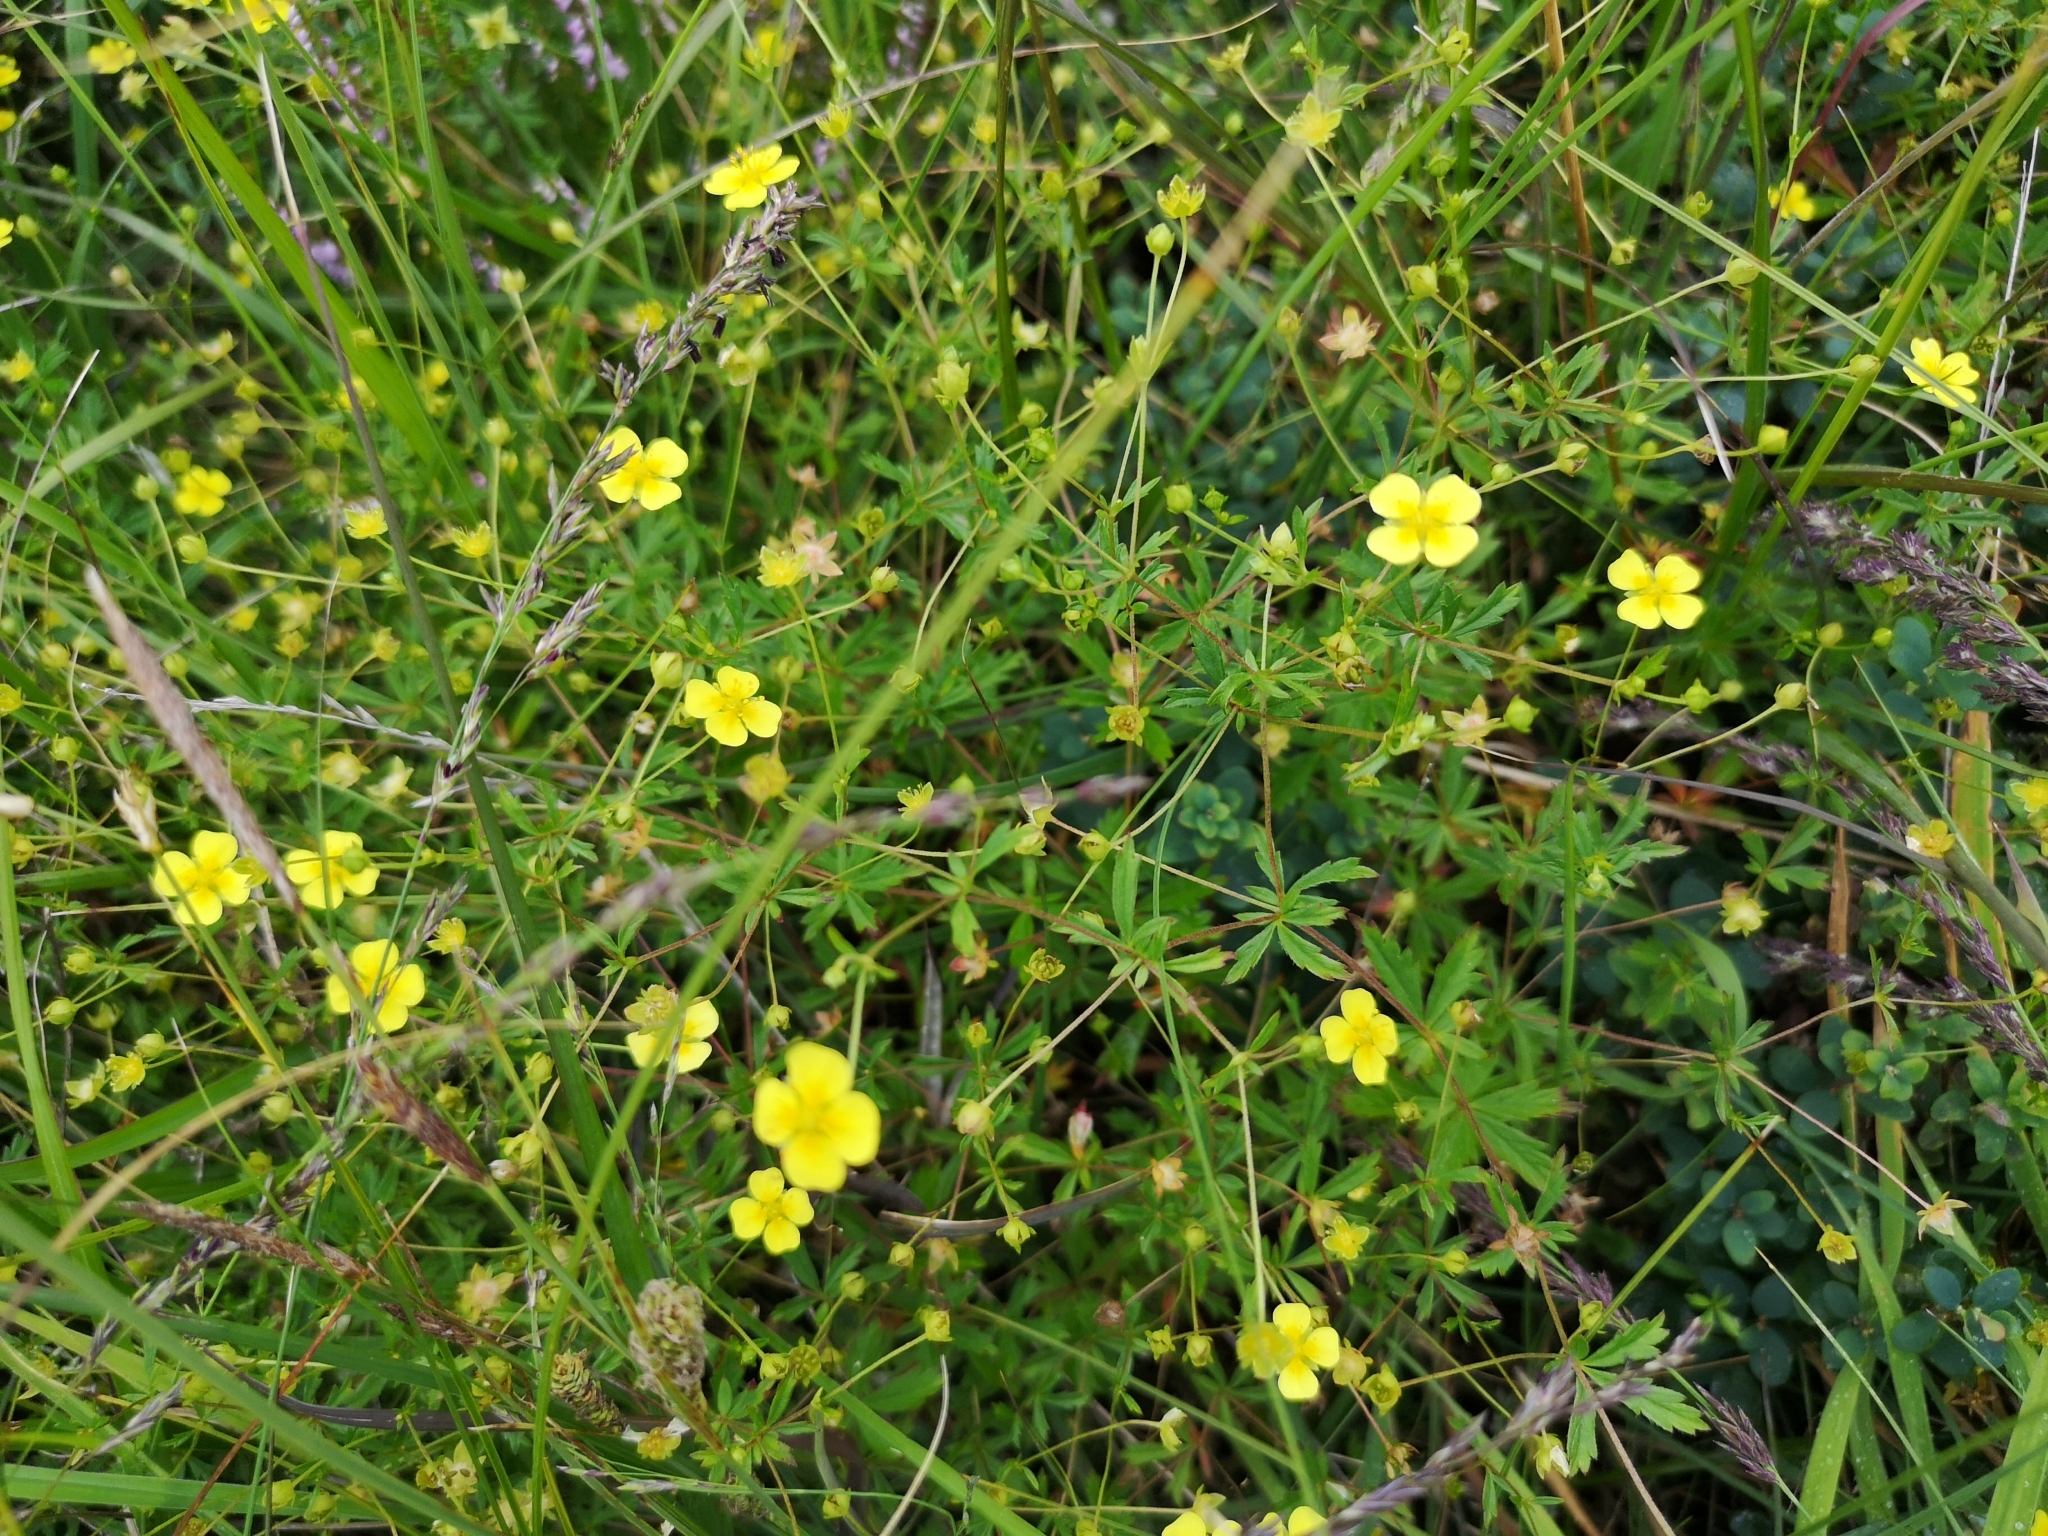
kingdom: Plantae
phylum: Tracheophyta
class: Magnoliopsida
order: Rosales
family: Rosaceae
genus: Potentilla
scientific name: Potentilla erecta
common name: Tormentil
